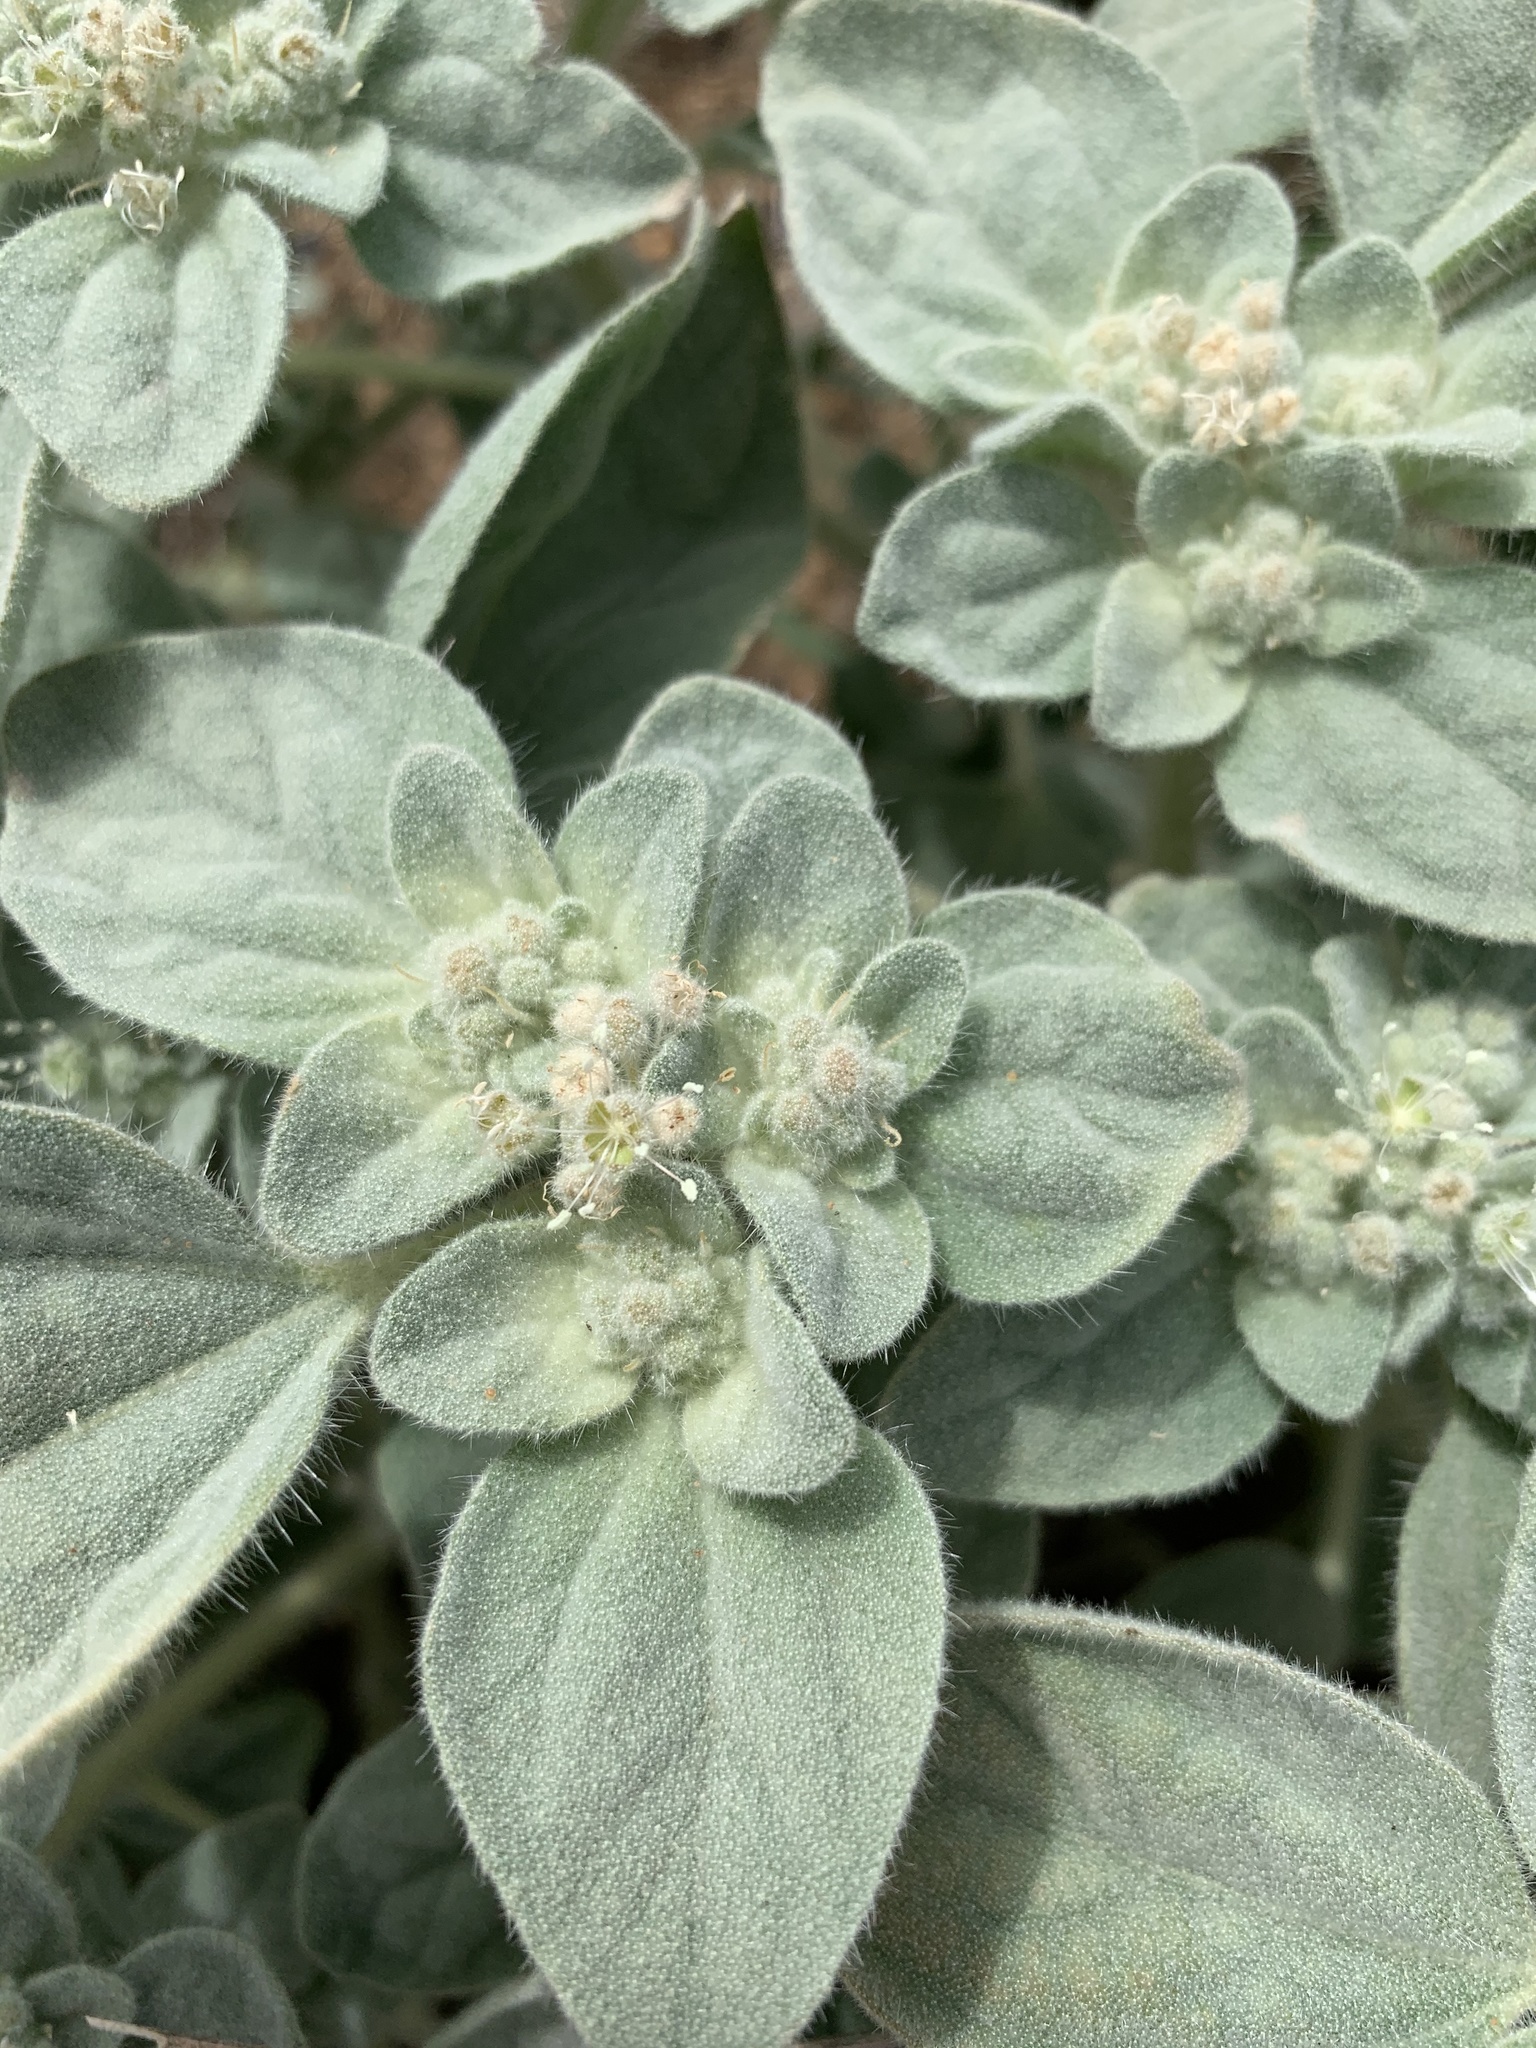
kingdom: Plantae
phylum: Tracheophyta
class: Magnoliopsida
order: Malpighiales
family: Euphorbiaceae
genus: Croton
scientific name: Croton setiger
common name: Dove weed
